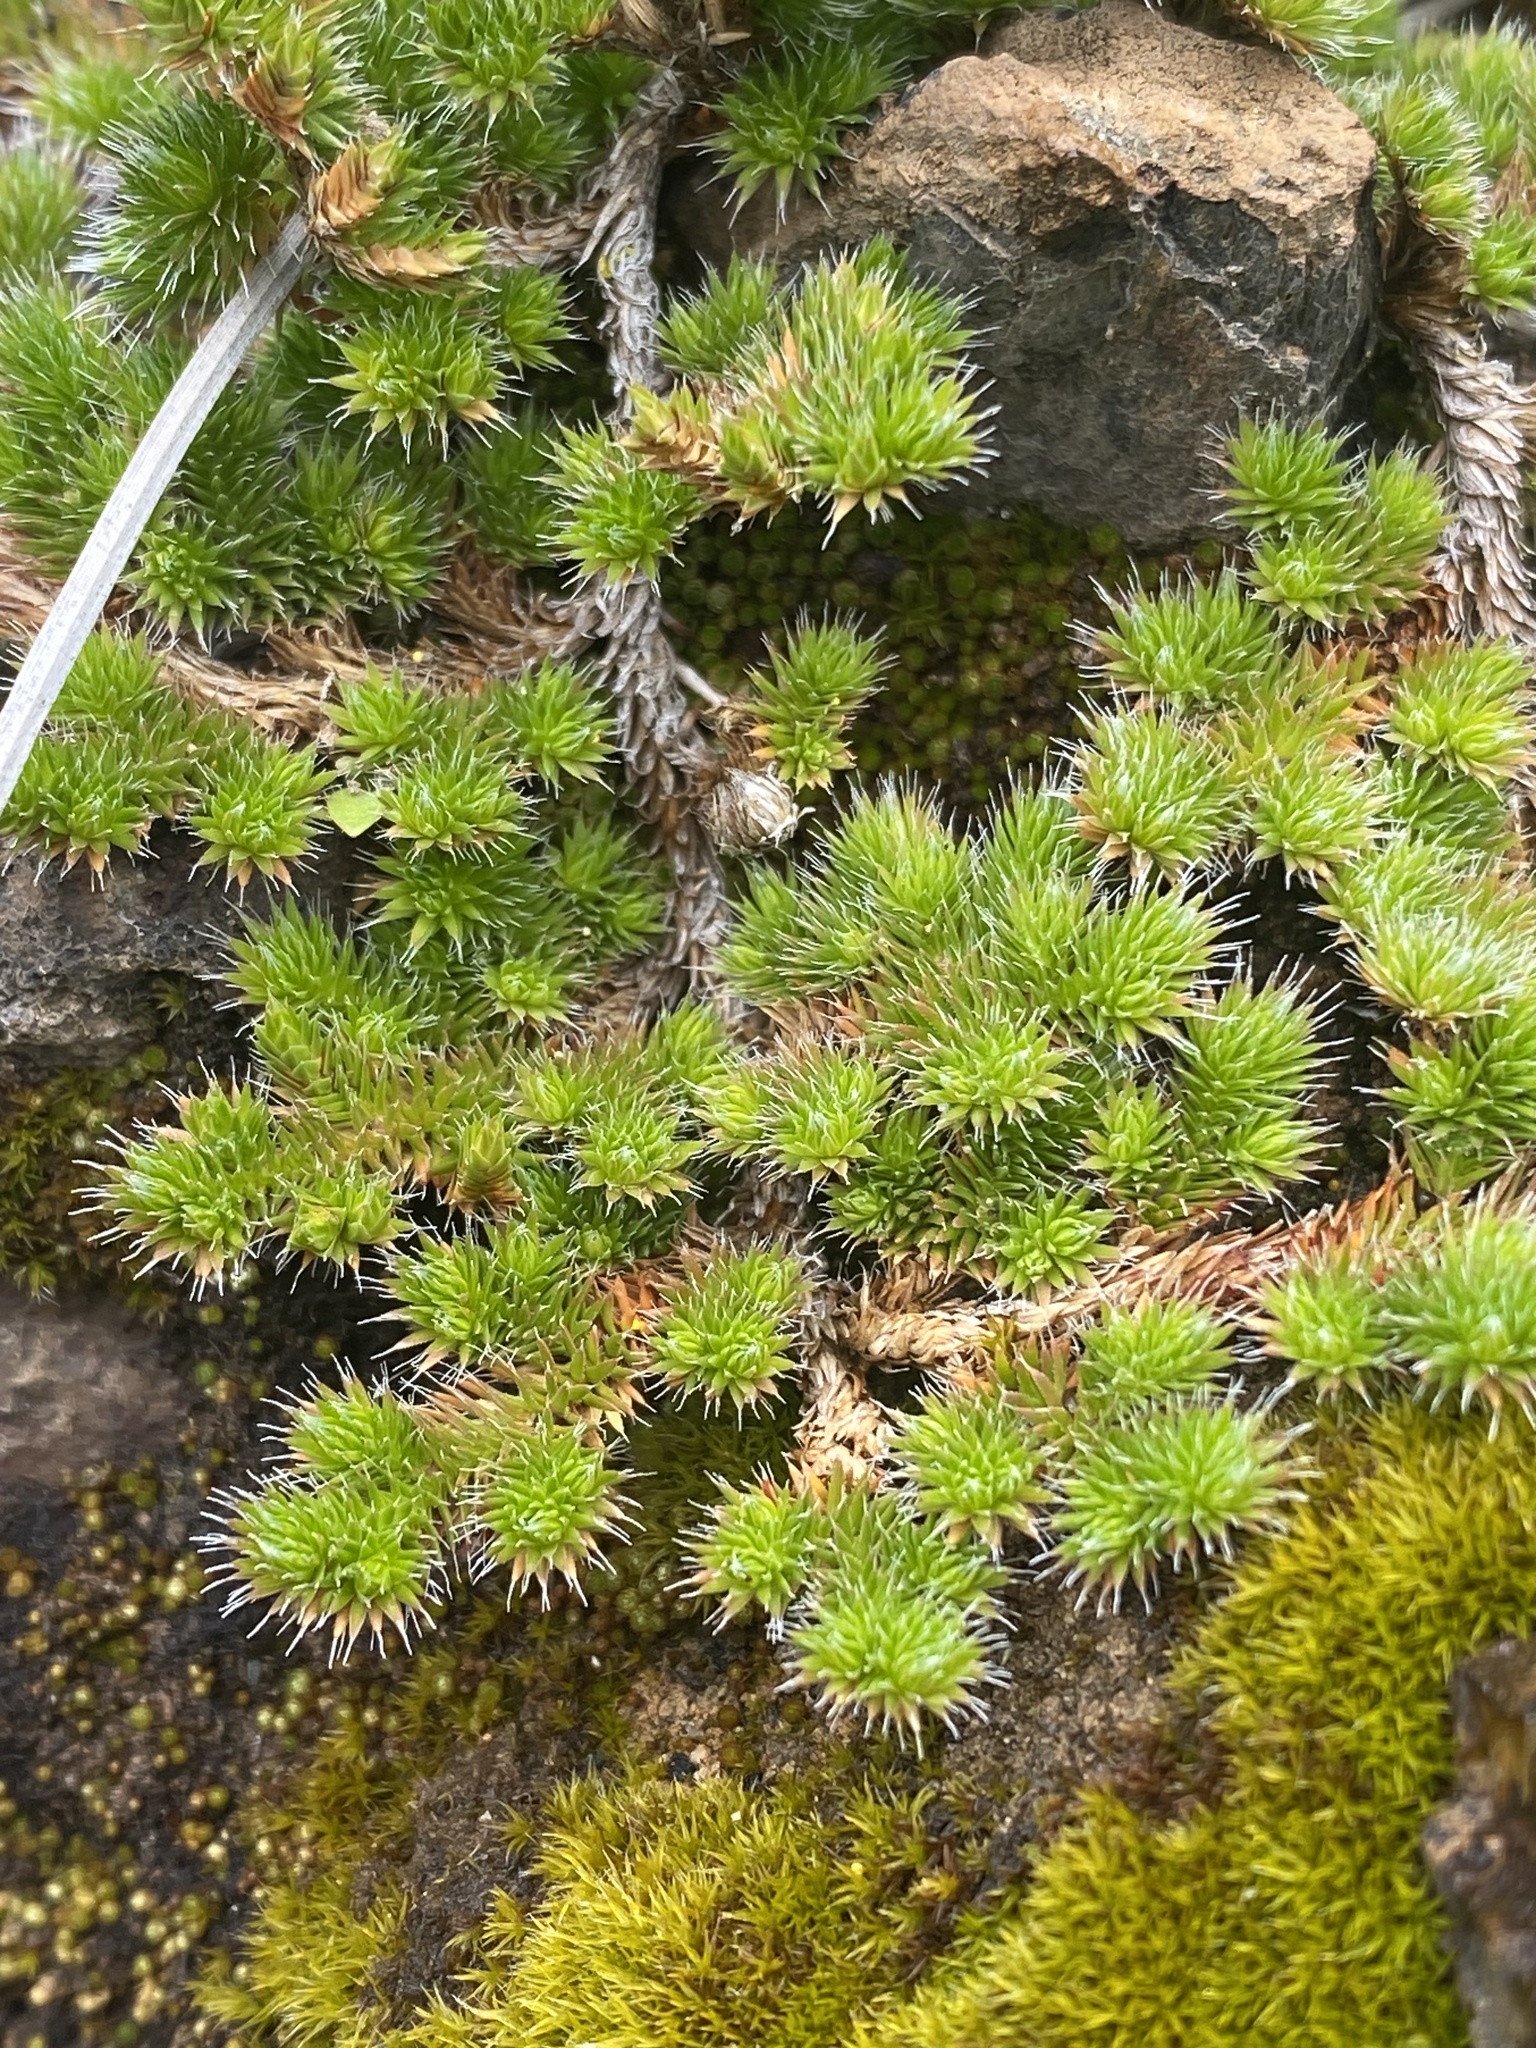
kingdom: Plantae
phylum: Tracheophyta
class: Lycopodiopsida
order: Selaginellales
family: Selaginellaceae
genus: Selaginella
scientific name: Selaginella hansenii
